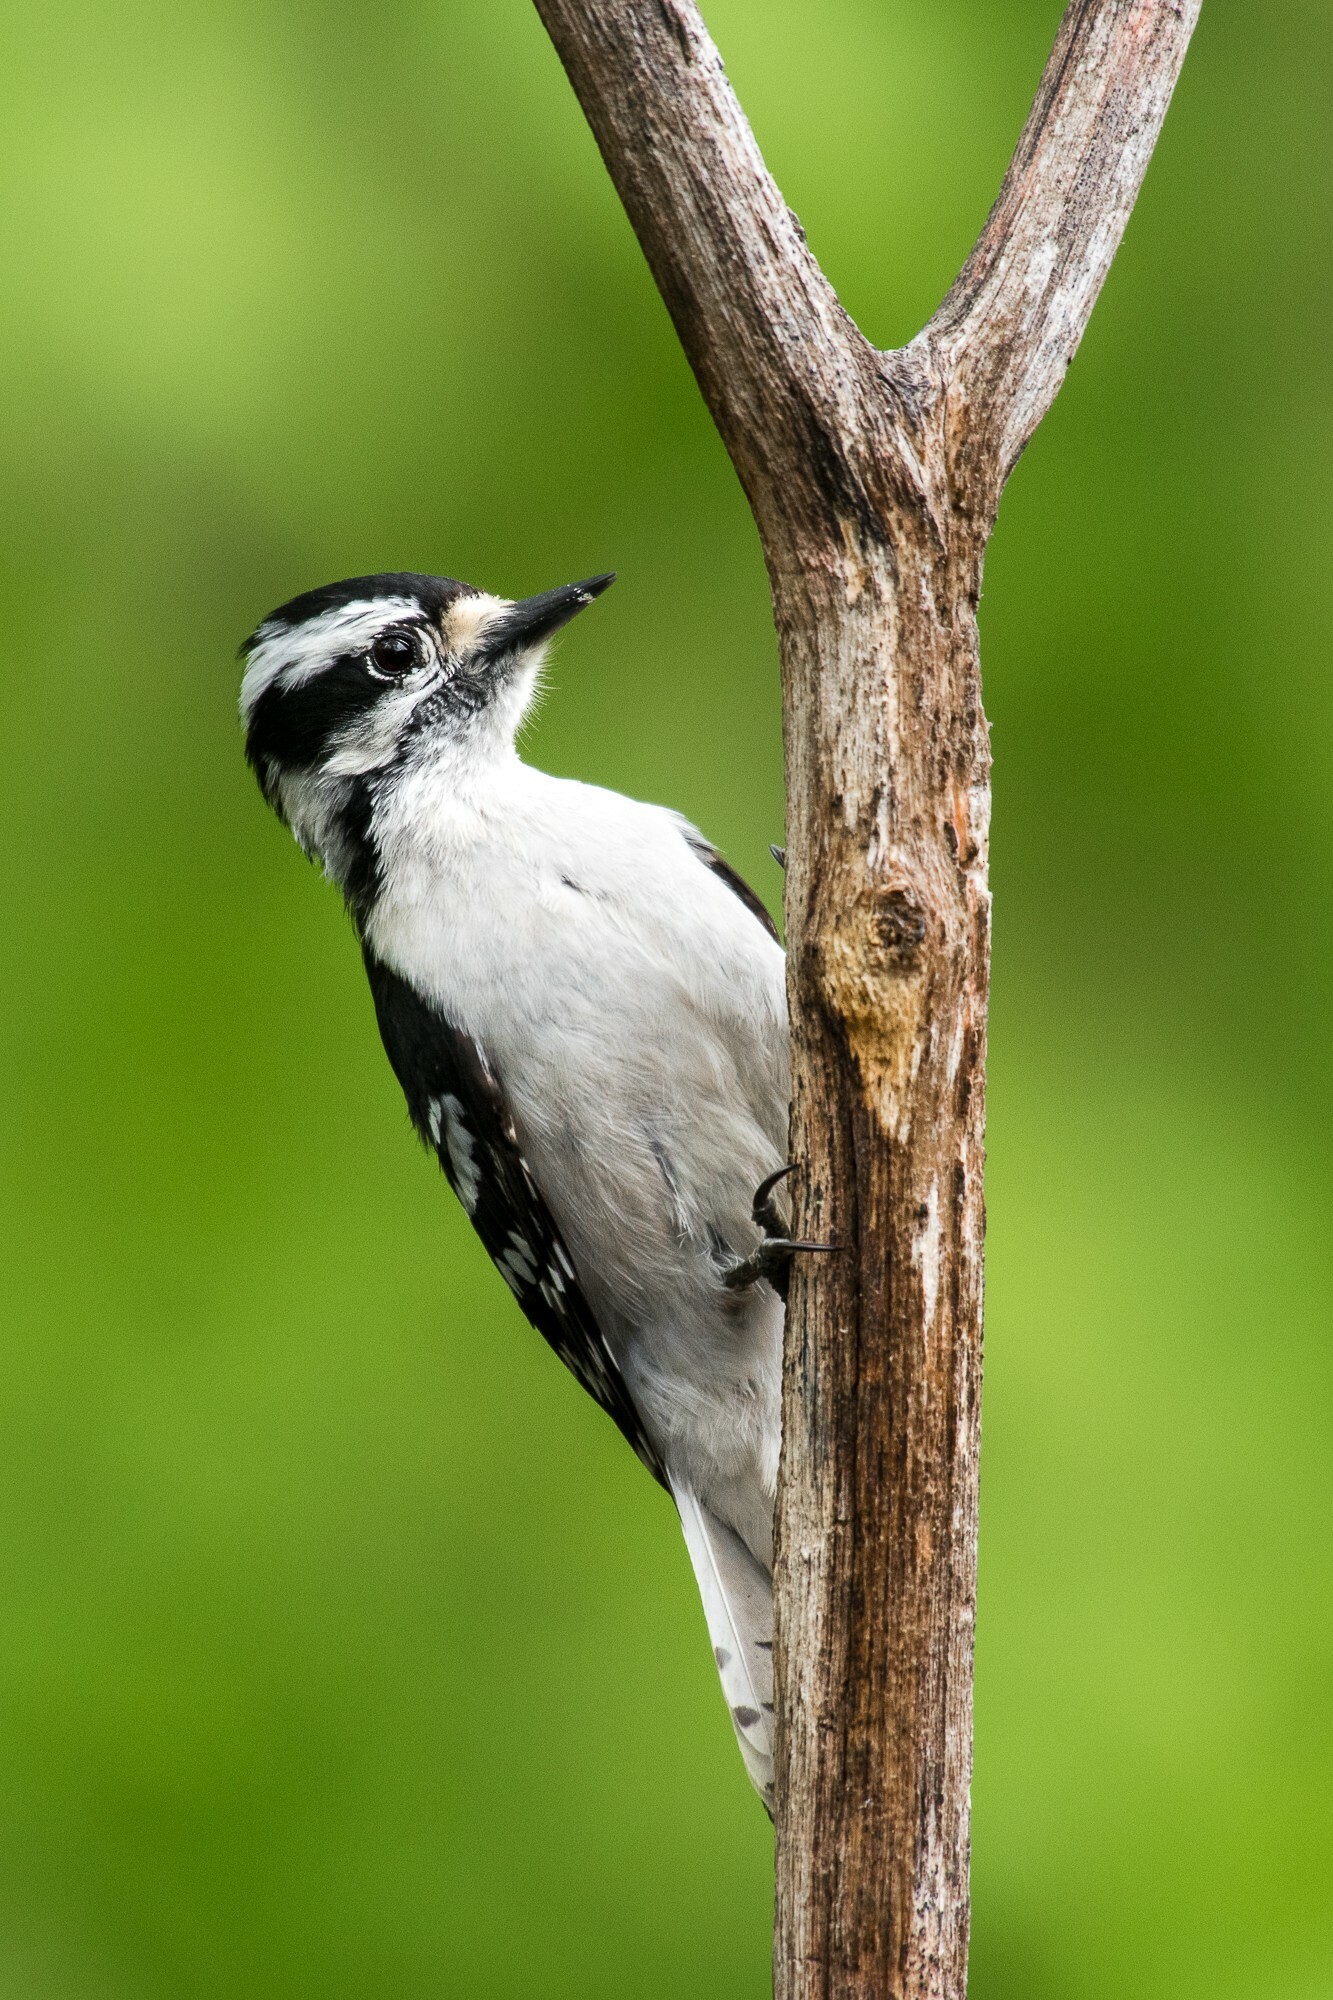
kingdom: Animalia
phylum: Chordata
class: Aves
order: Piciformes
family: Picidae
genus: Dryobates
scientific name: Dryobates pubescens
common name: Downy woodpecker
